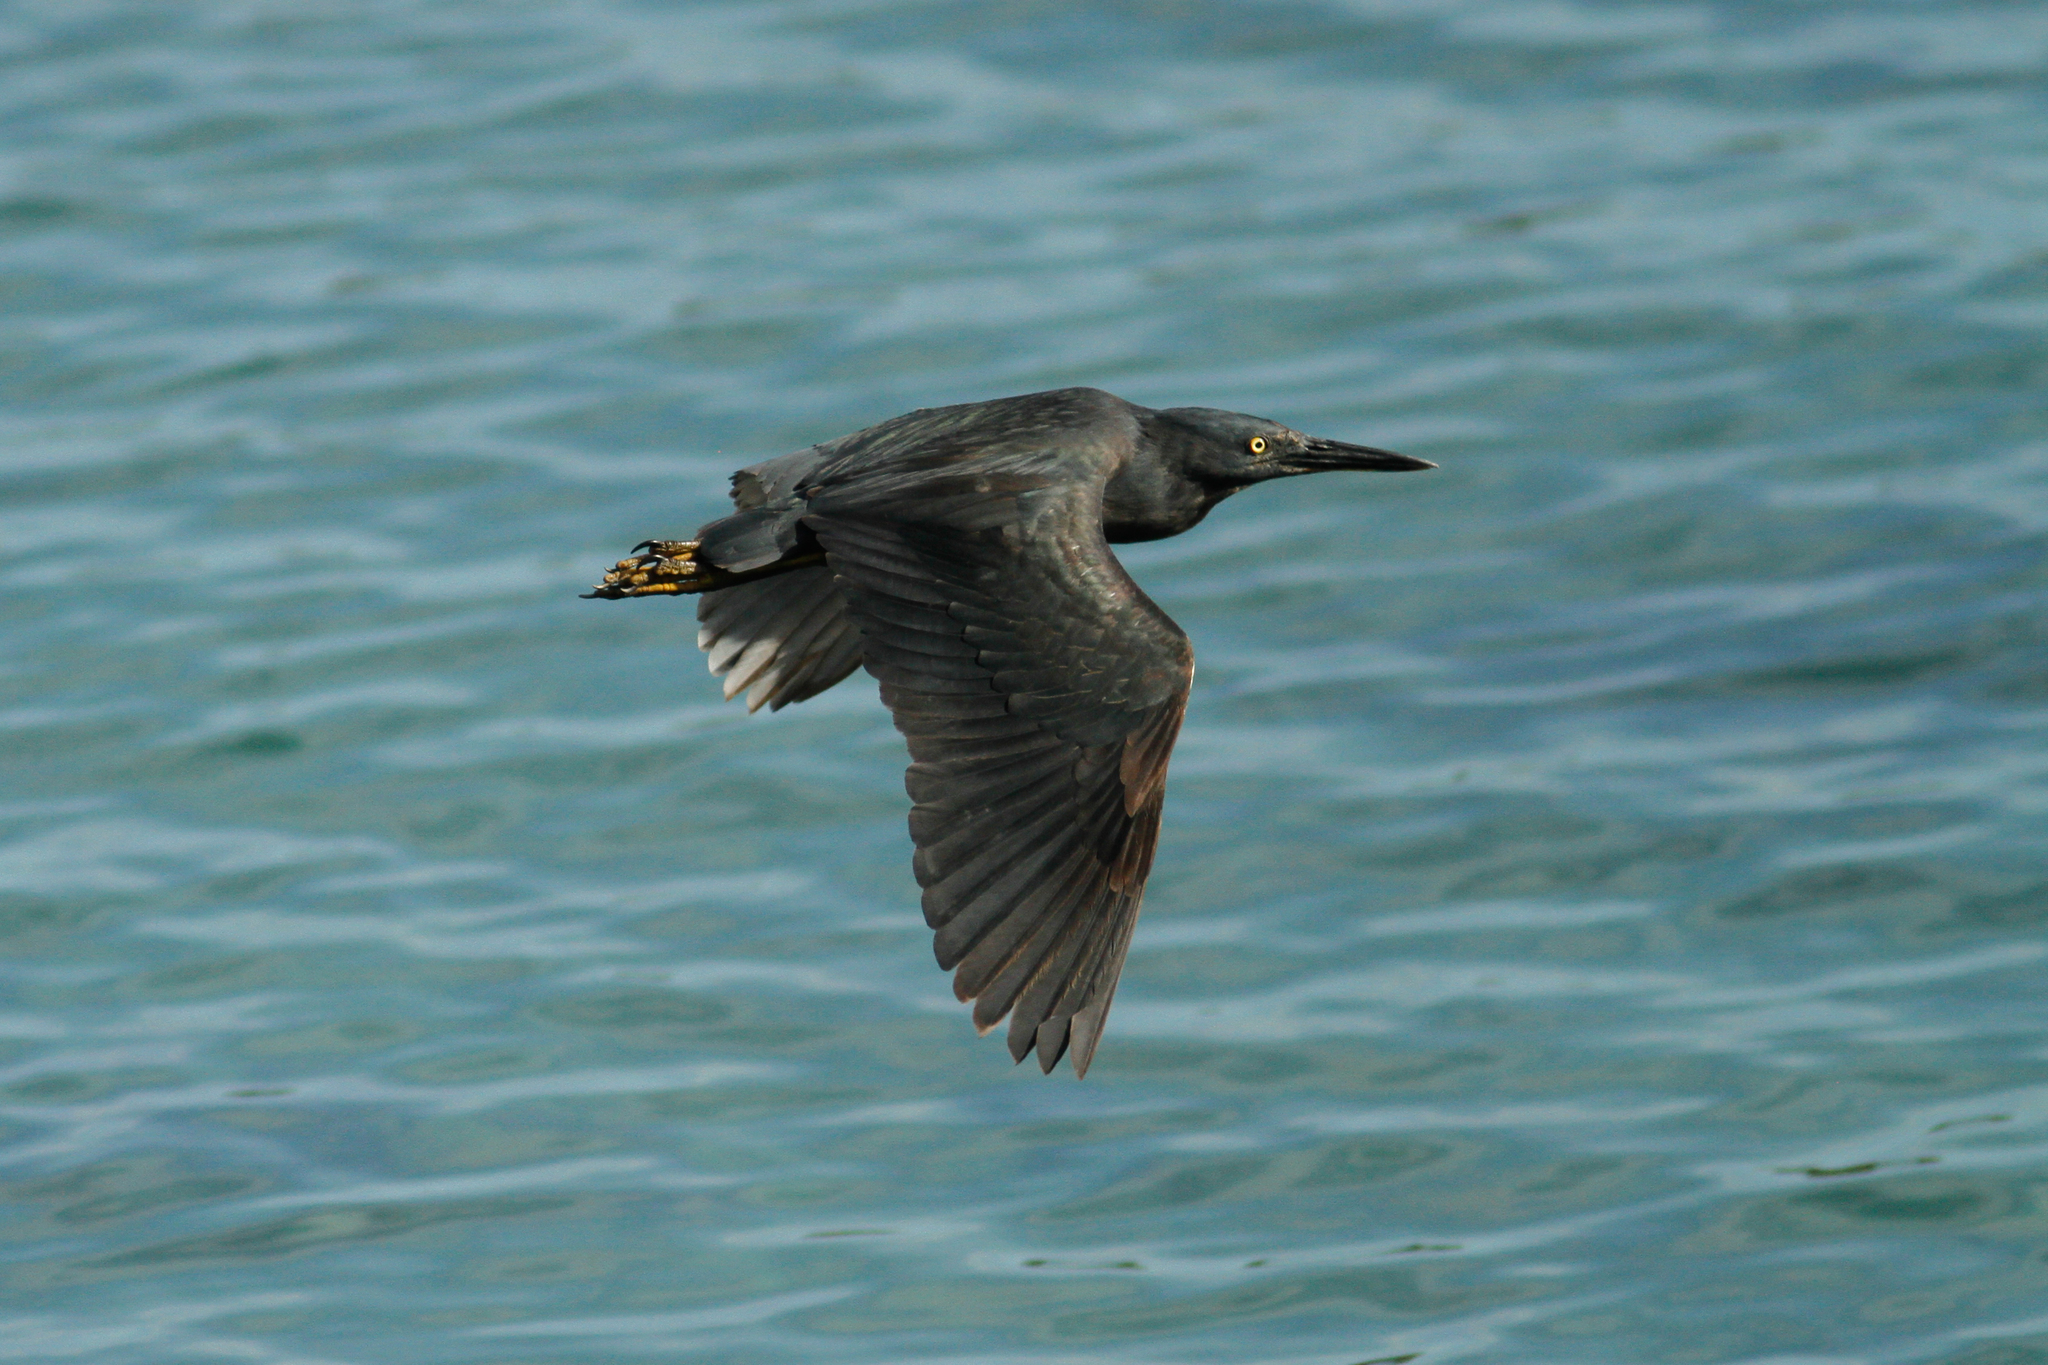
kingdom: Animalia
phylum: Chordata
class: Aves
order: Pelecaniformes
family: Ardeidae
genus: Butorides
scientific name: Butorides striata
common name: Striated heron
